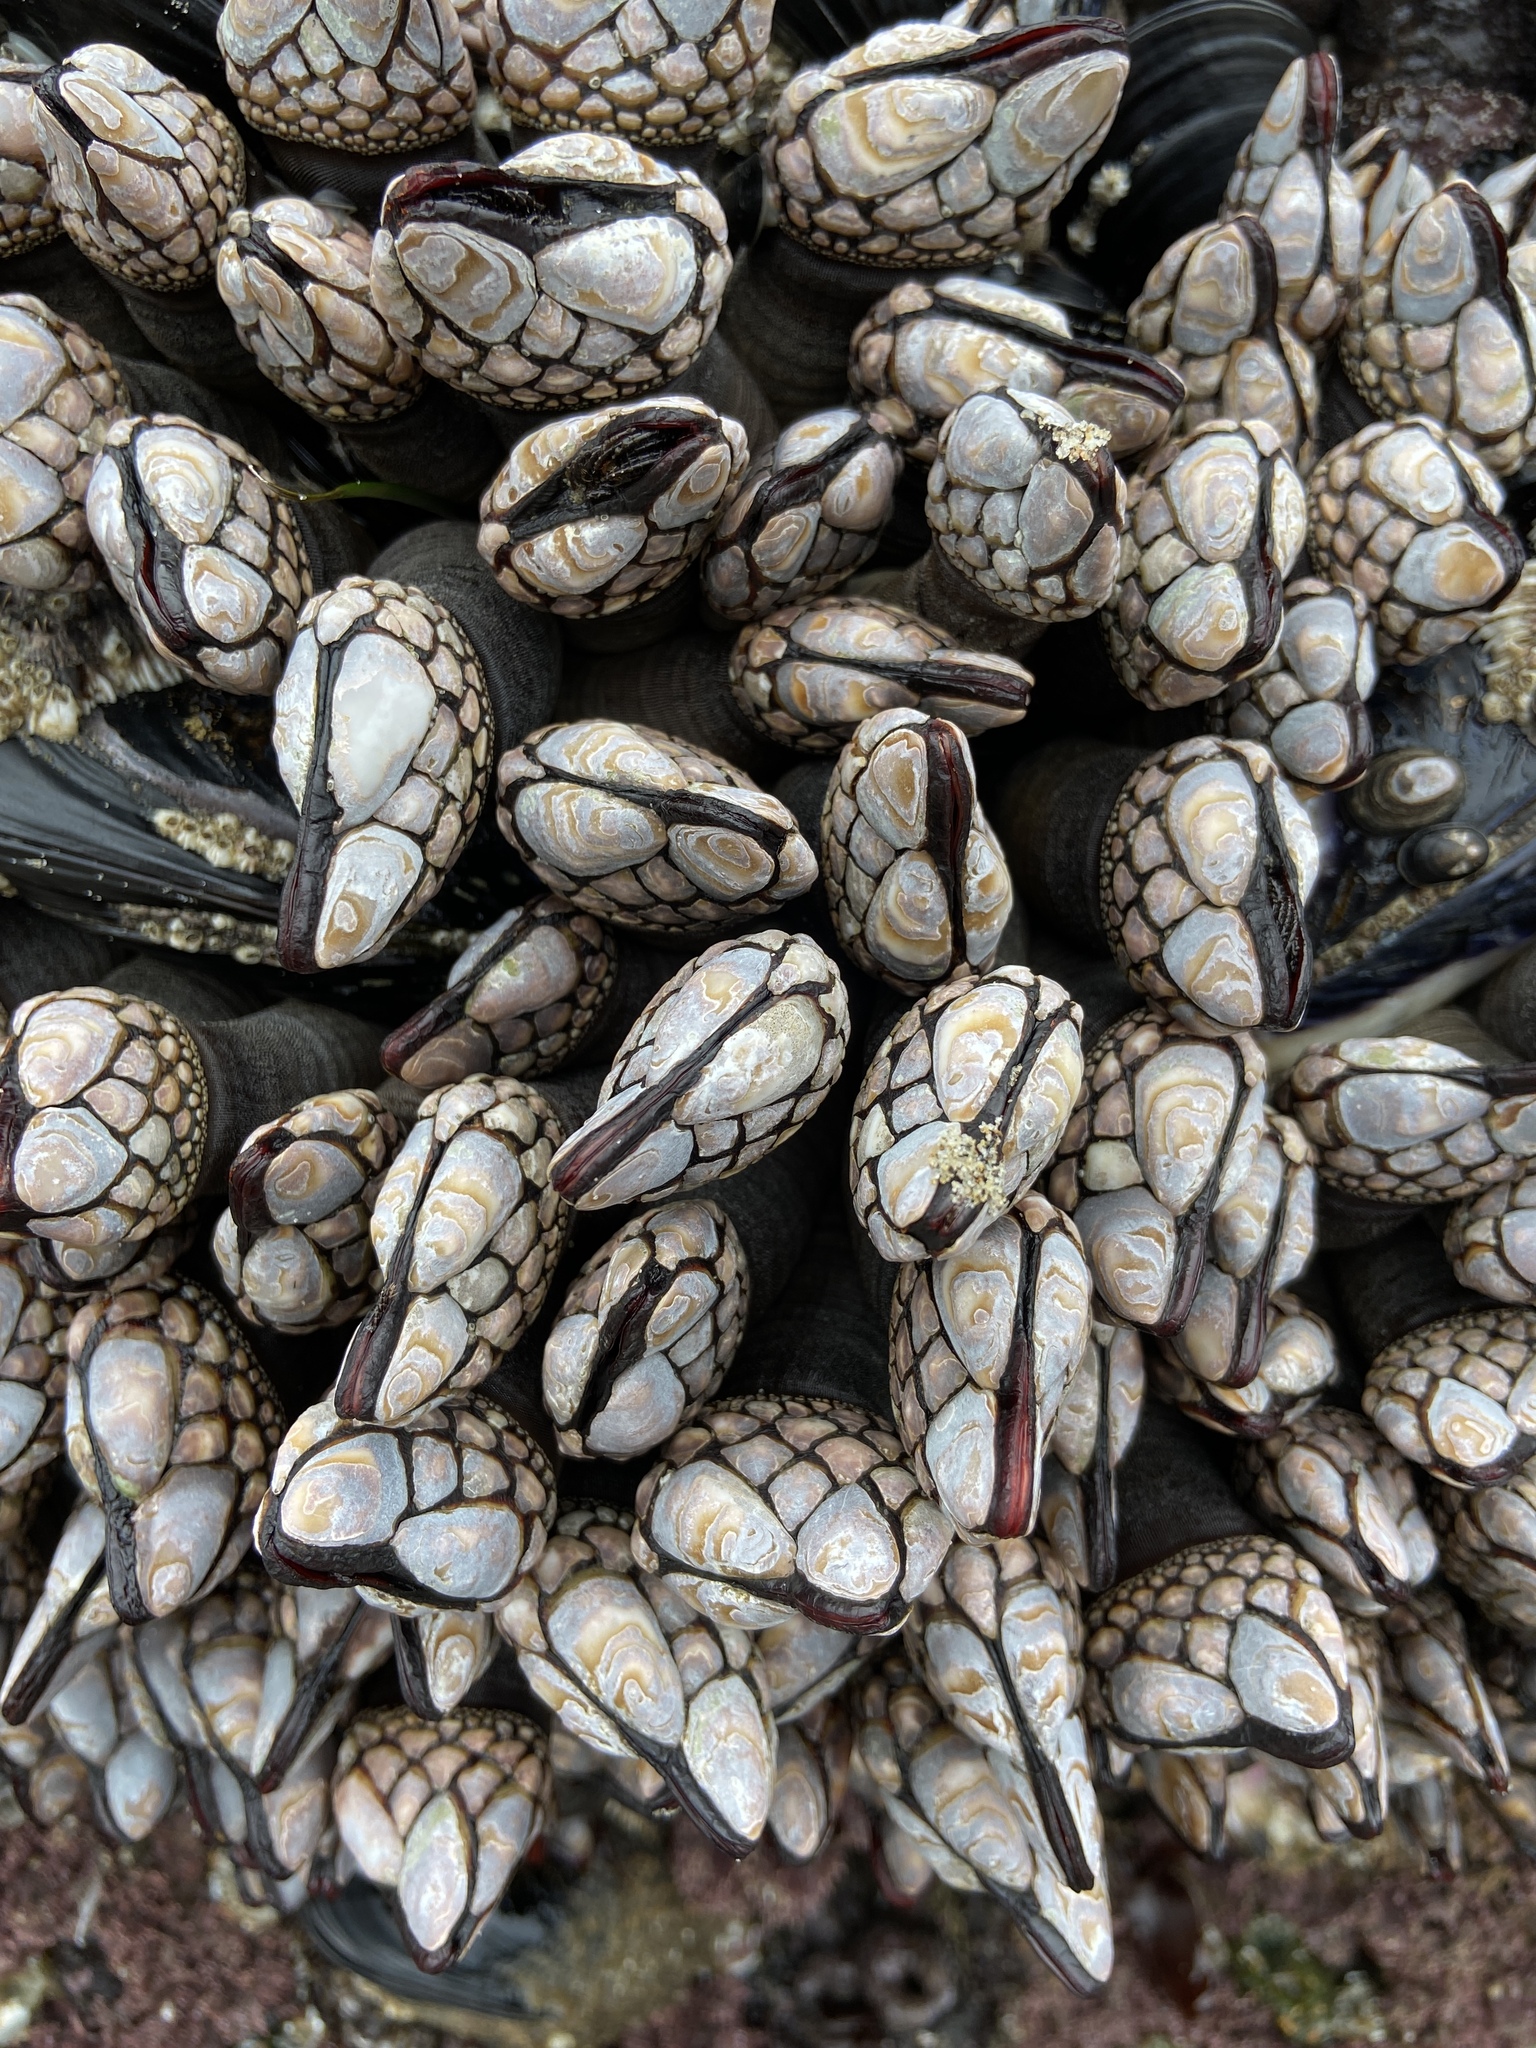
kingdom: Animalia
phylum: Arthropoda
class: Maxillopoda
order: Pedunculata
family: Pollicipedidae
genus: Pollicipes
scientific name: Pollicipes polymerus
